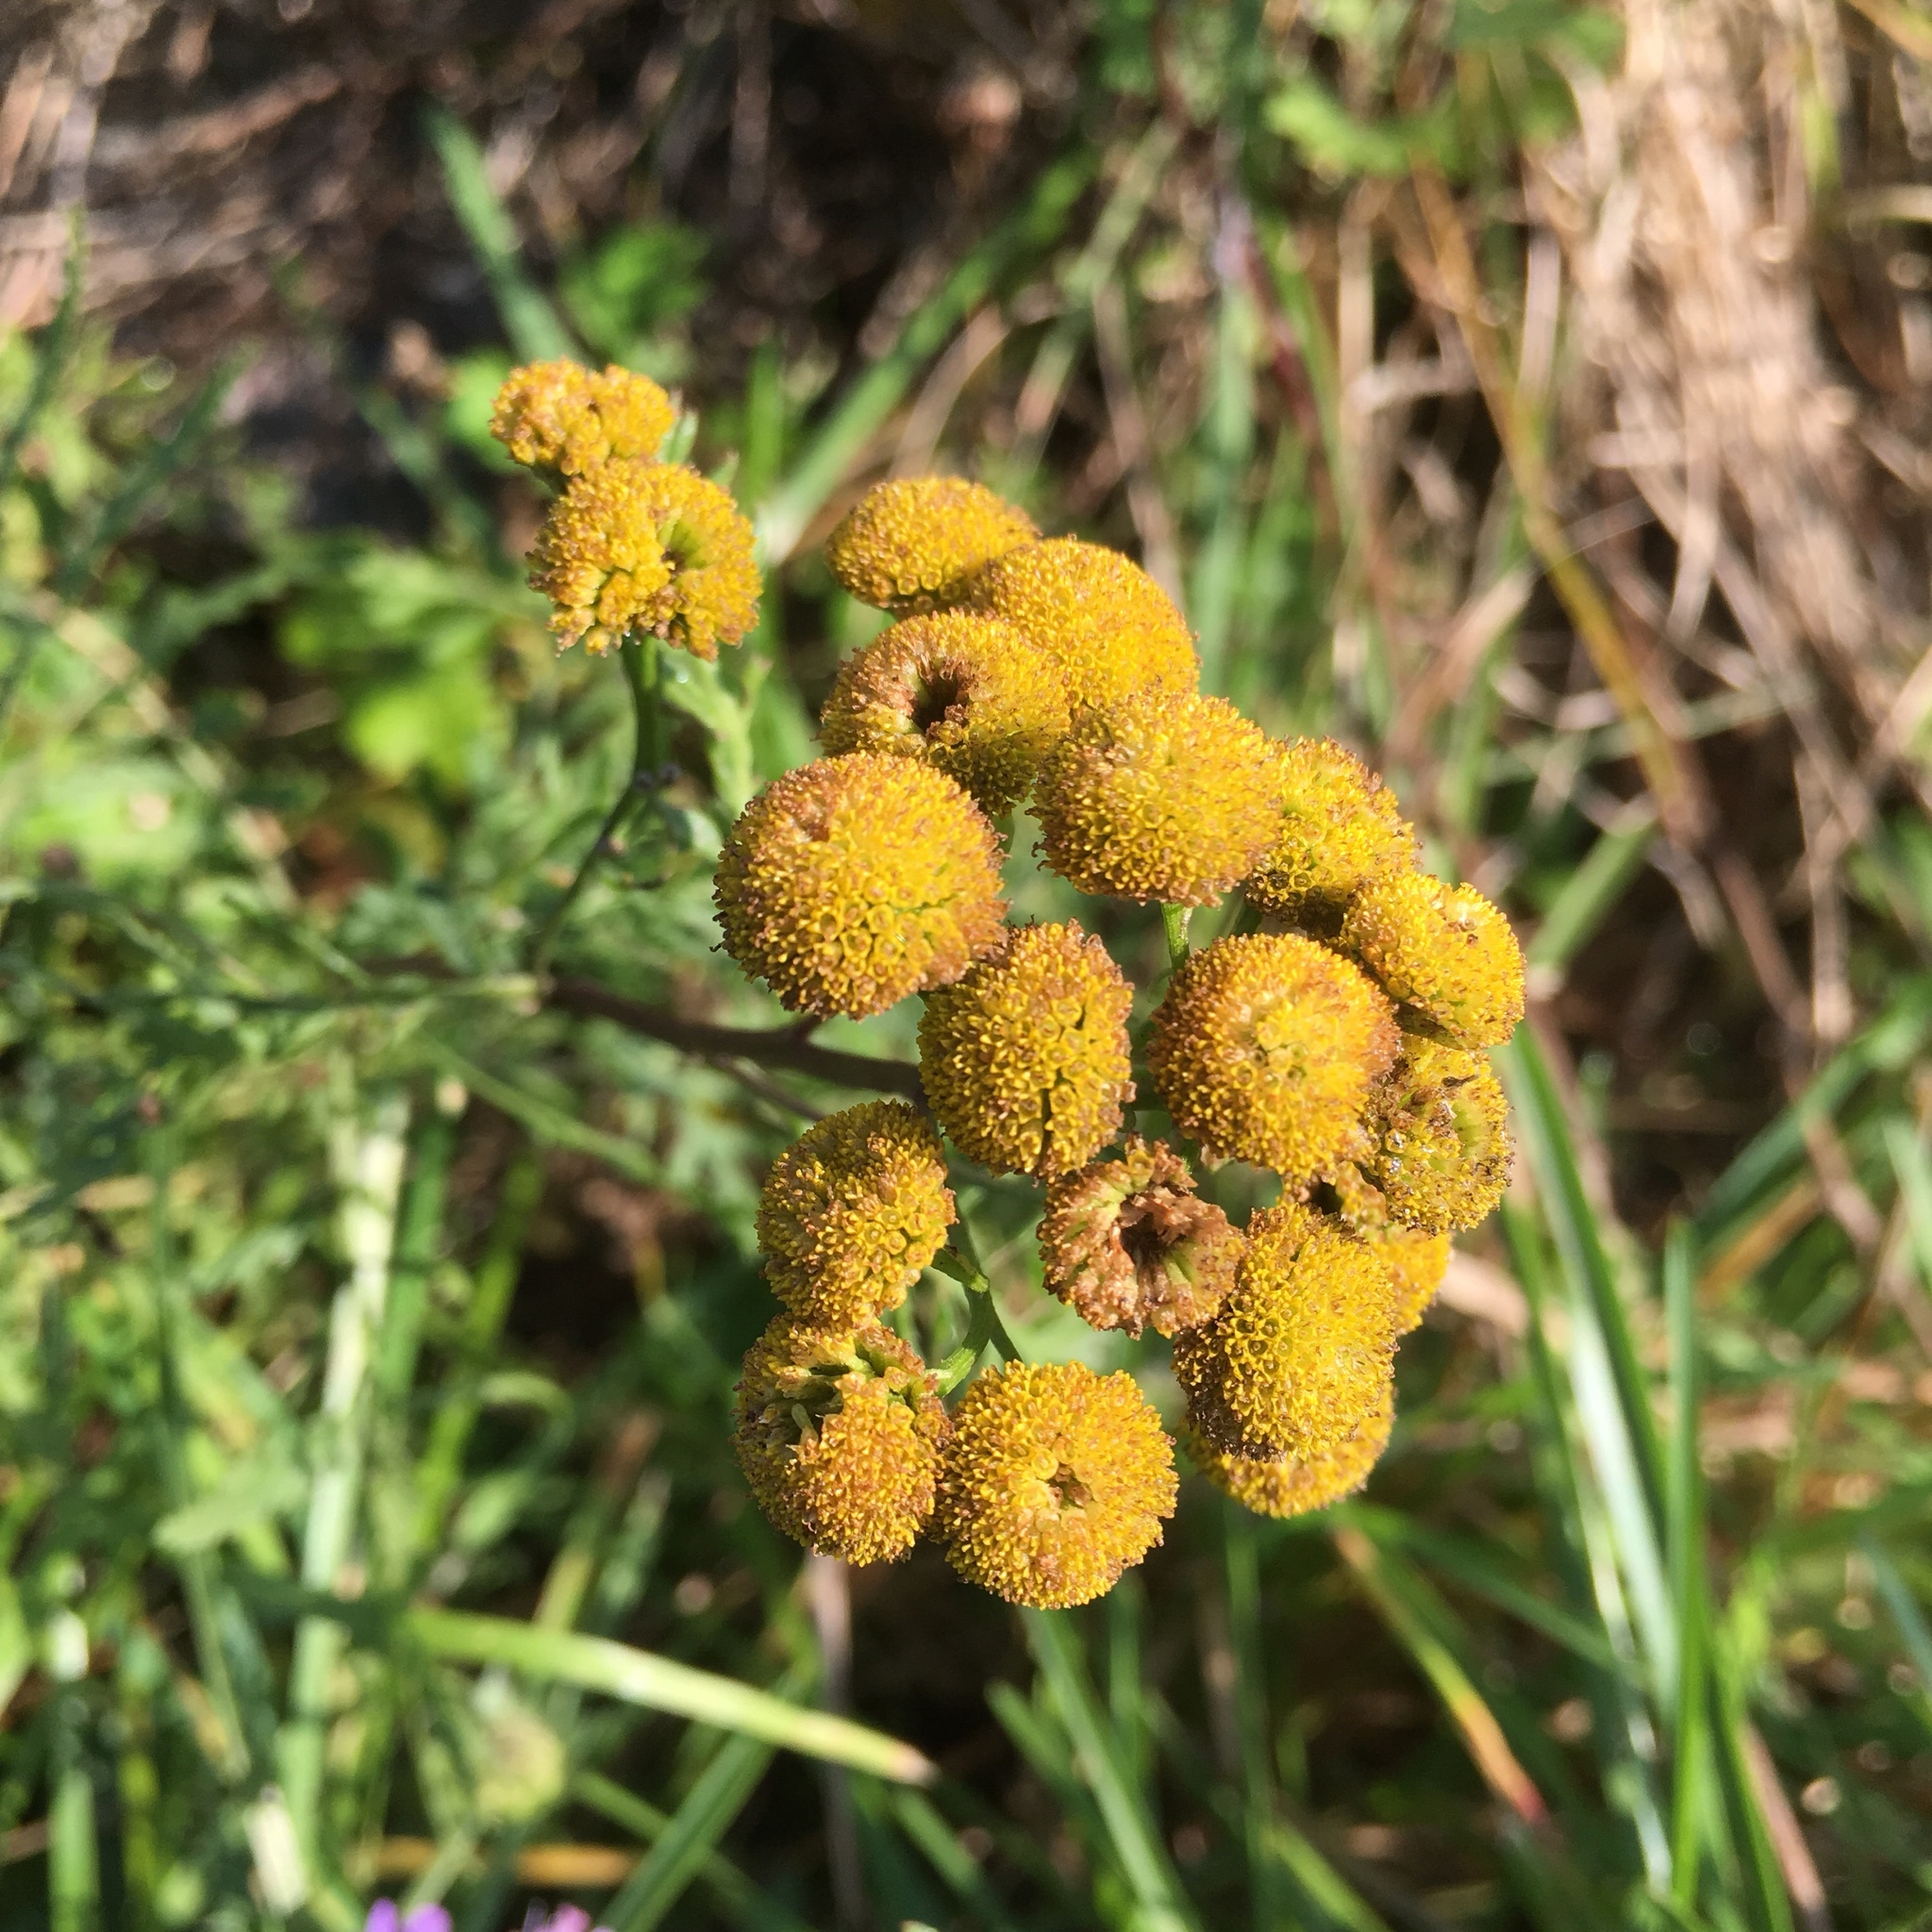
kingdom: Plantae
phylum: Tracheophyta
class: Magnoliopsida
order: Asterales
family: Asteraceae
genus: Tanacetum
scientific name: Tanacetum vulgare
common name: Common tansy
